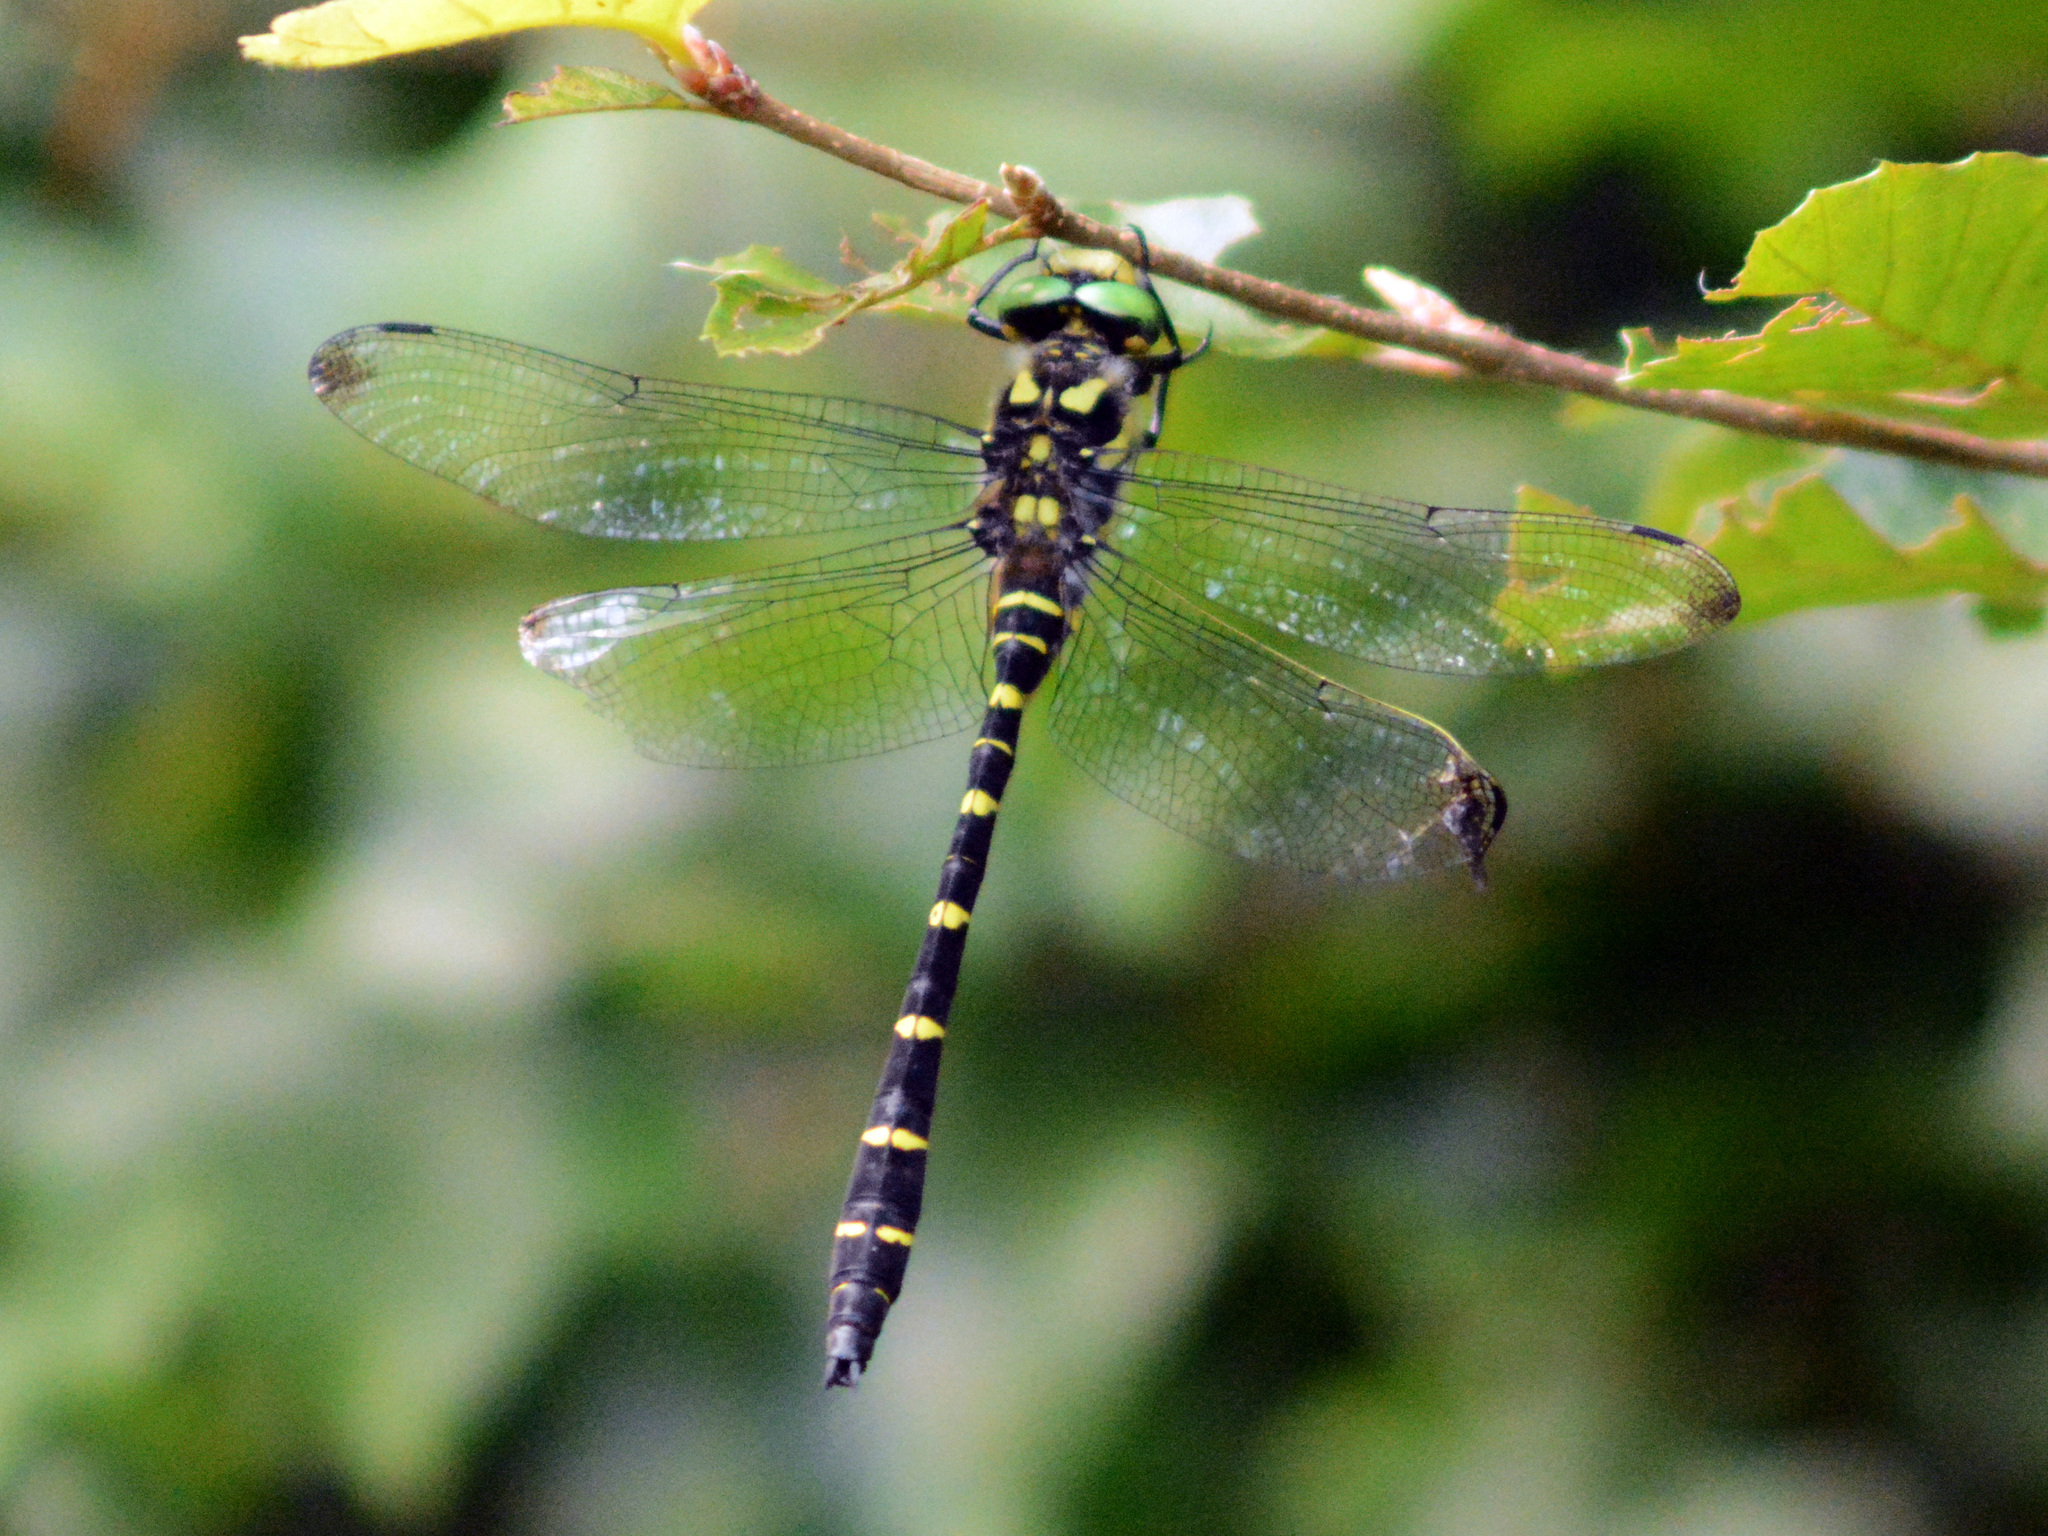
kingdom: Animalia
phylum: Arthropoda
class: Insecta
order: Odonata
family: Cordulegastridae
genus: Cordulegaster
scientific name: Cordulegaster bidentata
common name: Sombre goldenring
